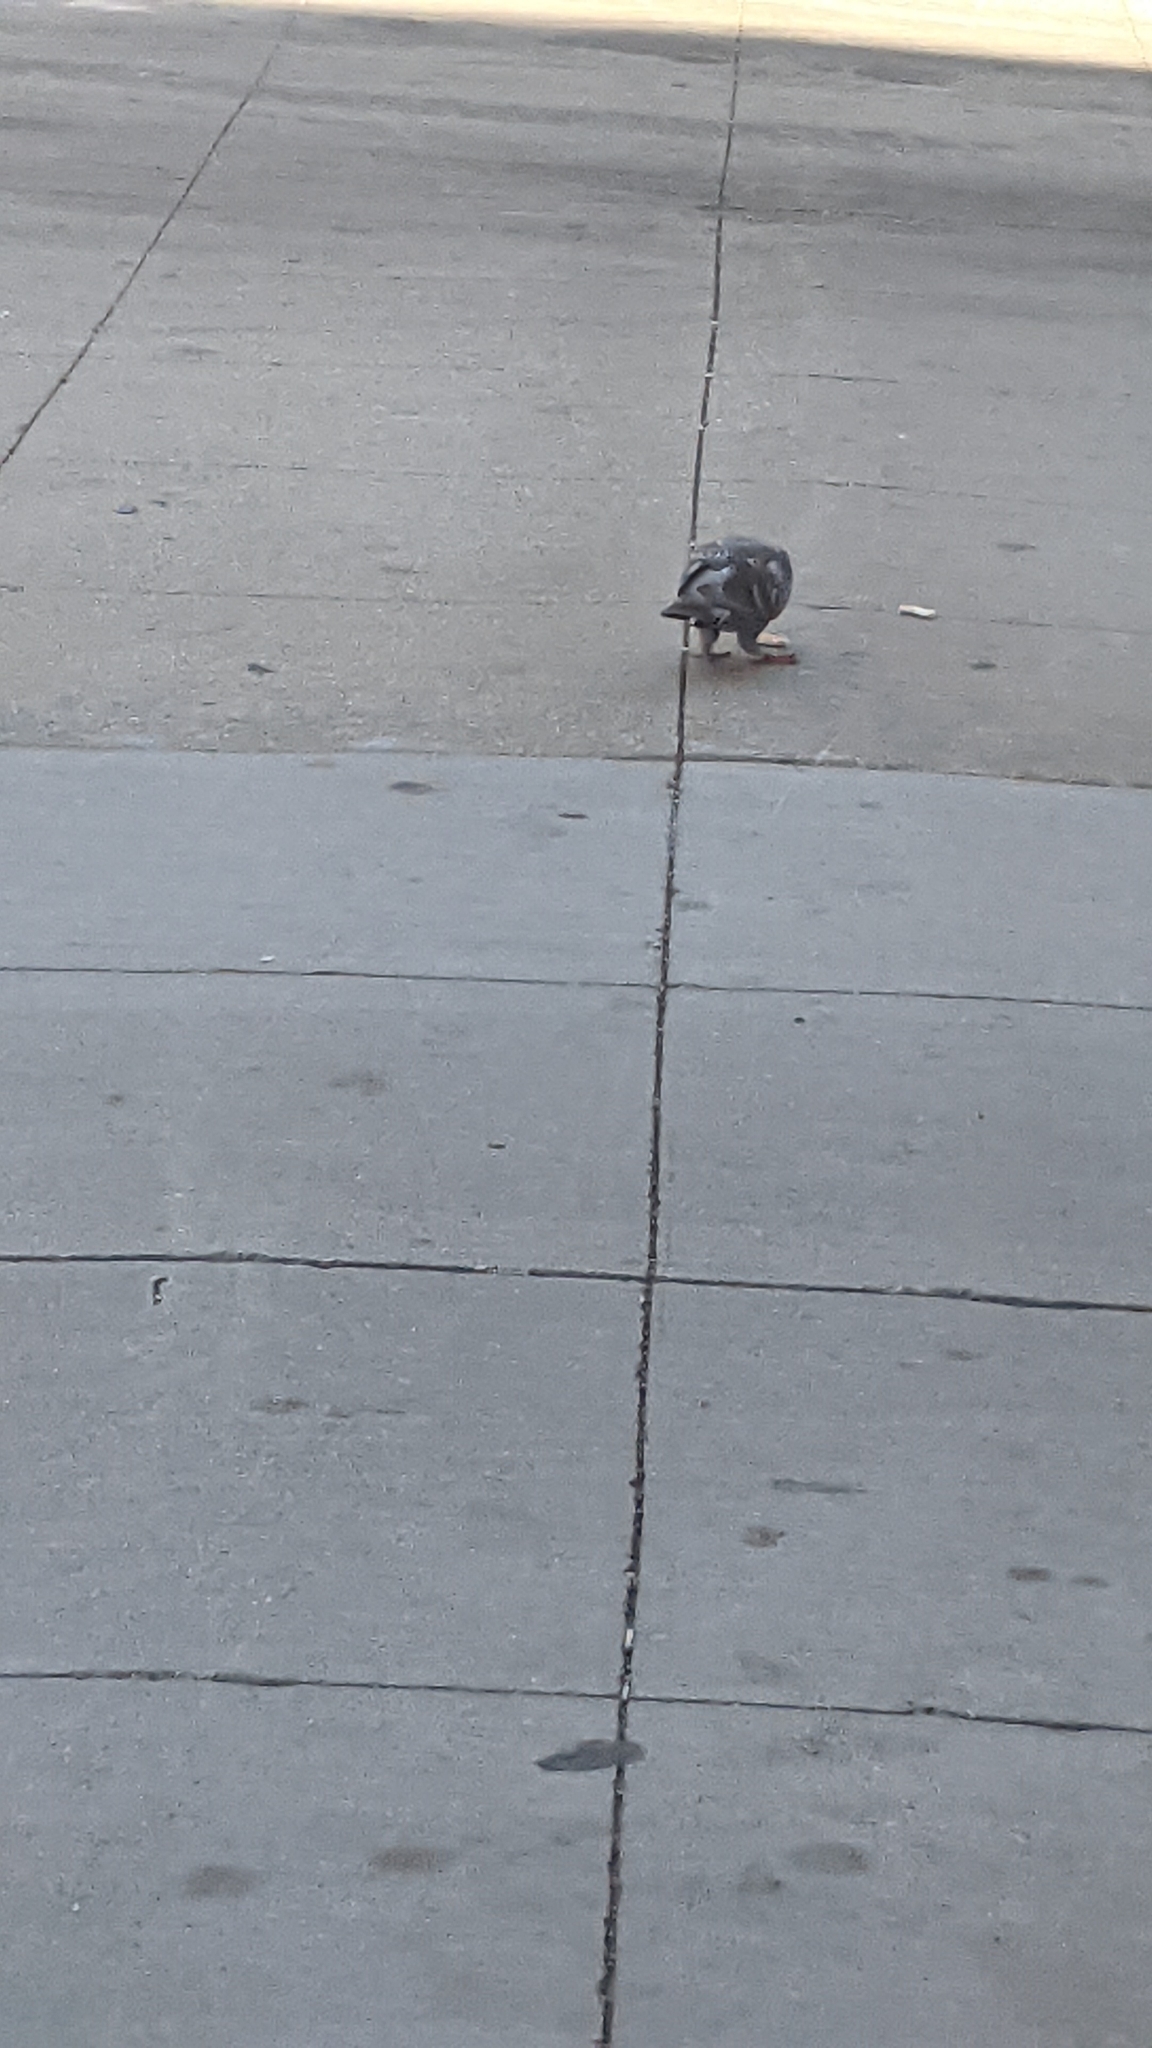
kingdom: Animalia
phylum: Chordata
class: Aves
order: Columbiformes
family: Columbidae
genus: Columba
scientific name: Columba livia
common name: Rock pigeon
